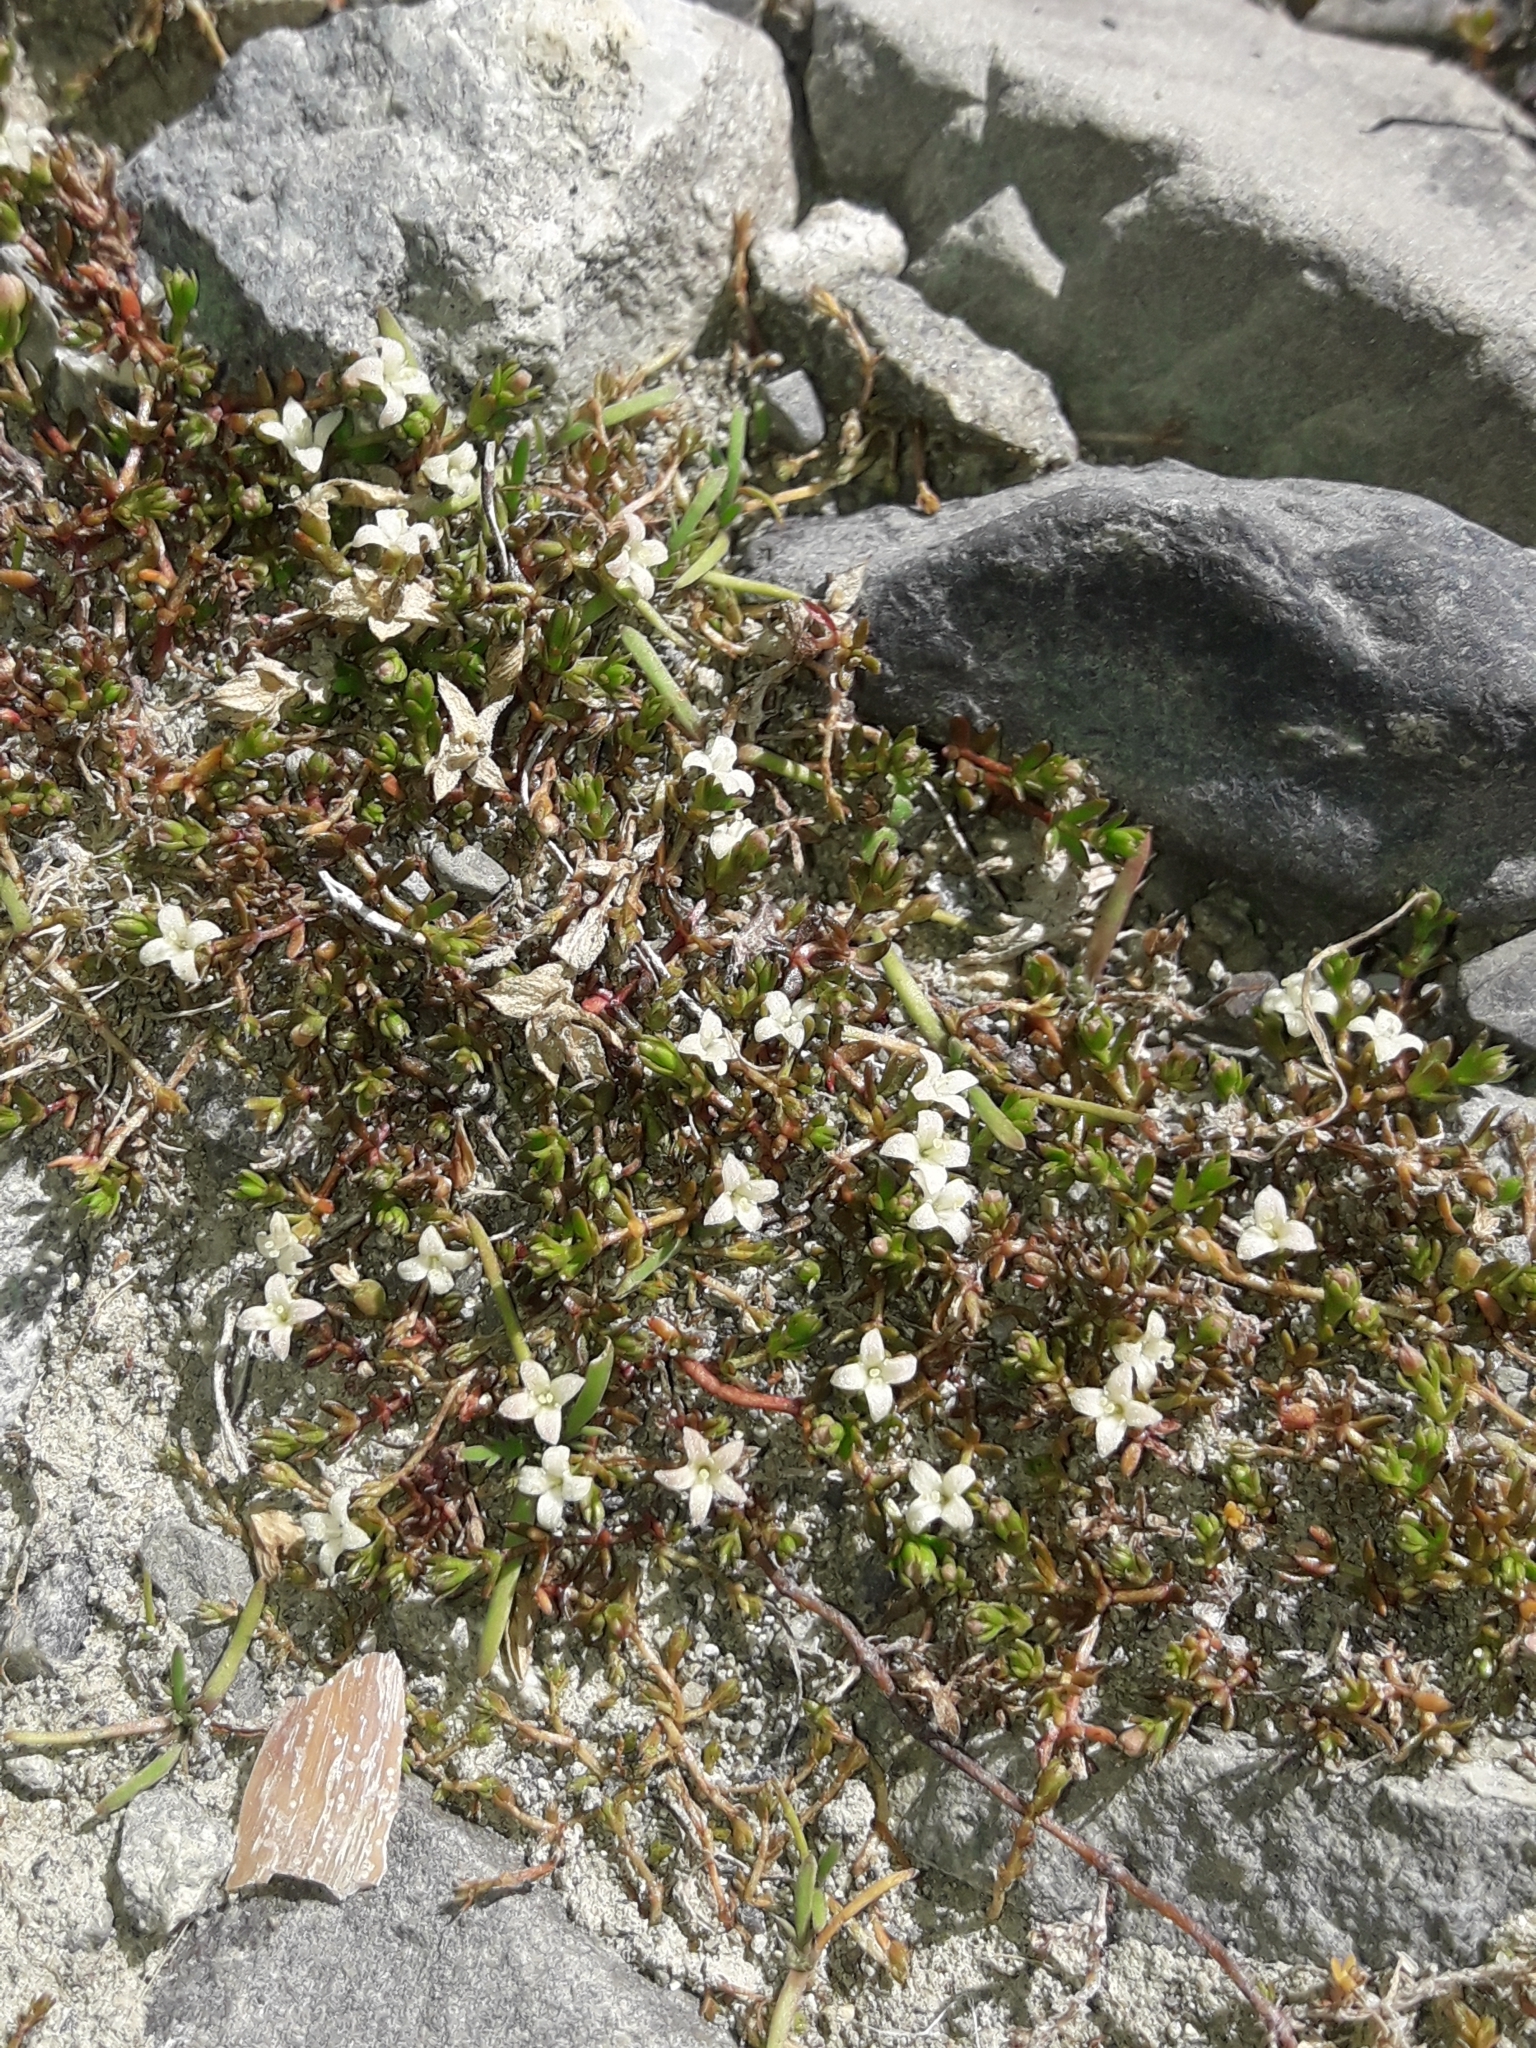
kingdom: Plantae
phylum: Tracheophyta
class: Magnoliopsida
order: Gentianales
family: Rubiaceae
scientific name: Rubiaceae
